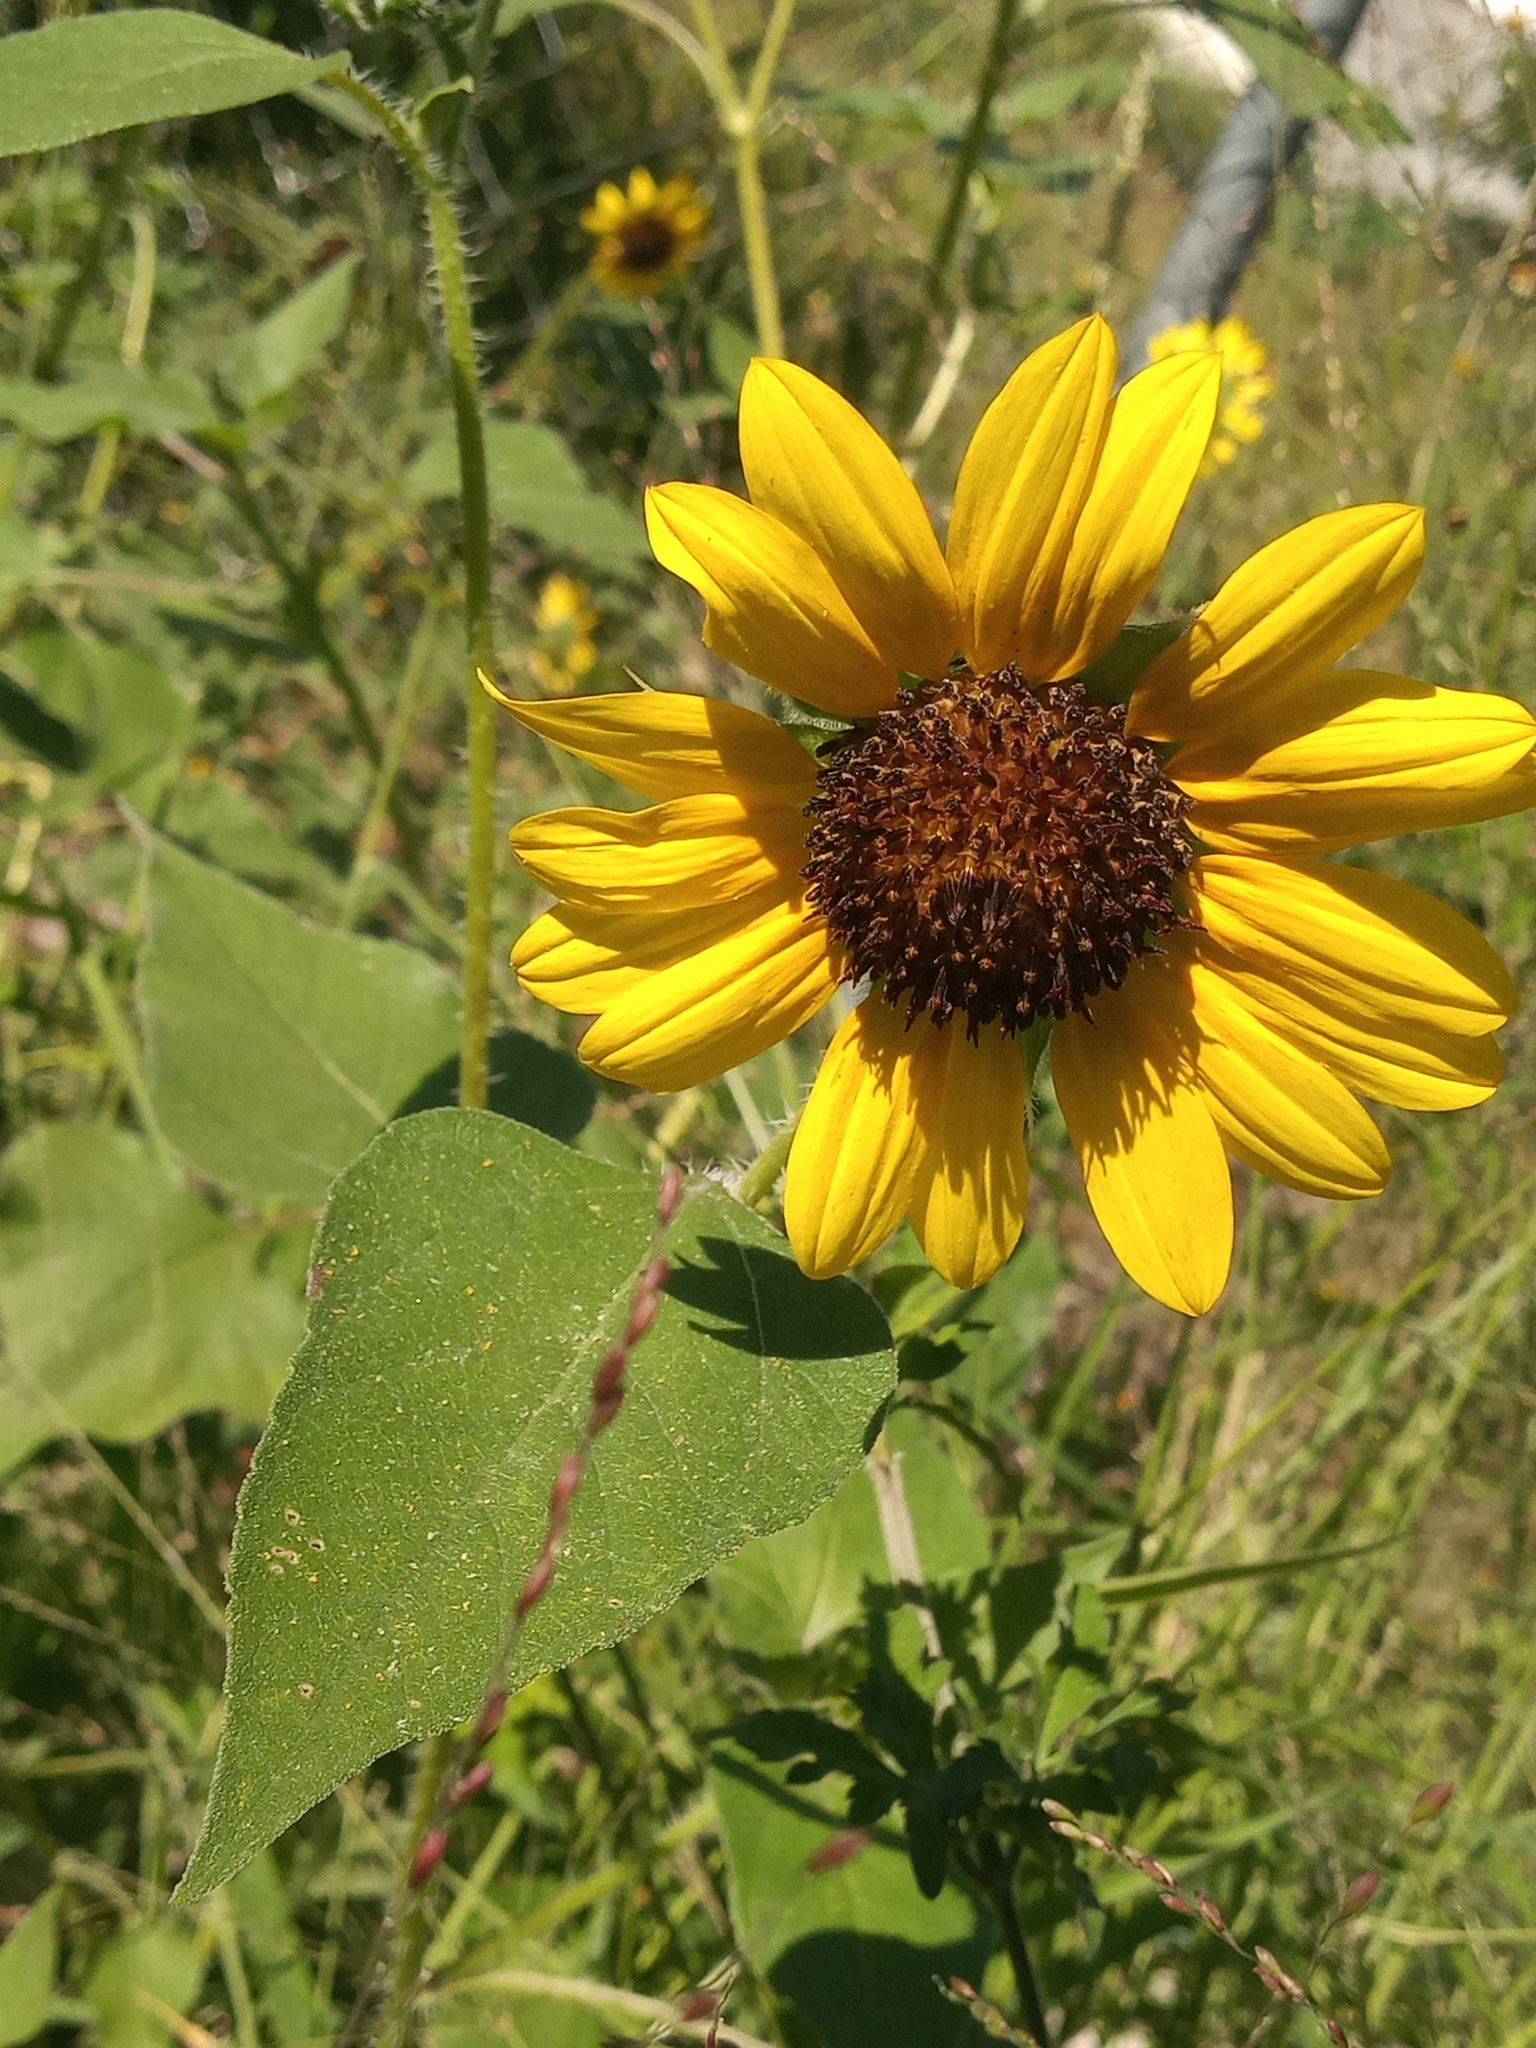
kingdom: Plantae
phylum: Tracheophyta
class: Magnoliopsida
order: Asterales
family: Asteraceae
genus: Helianthus
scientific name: Helianthus annuus
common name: Sunflower
